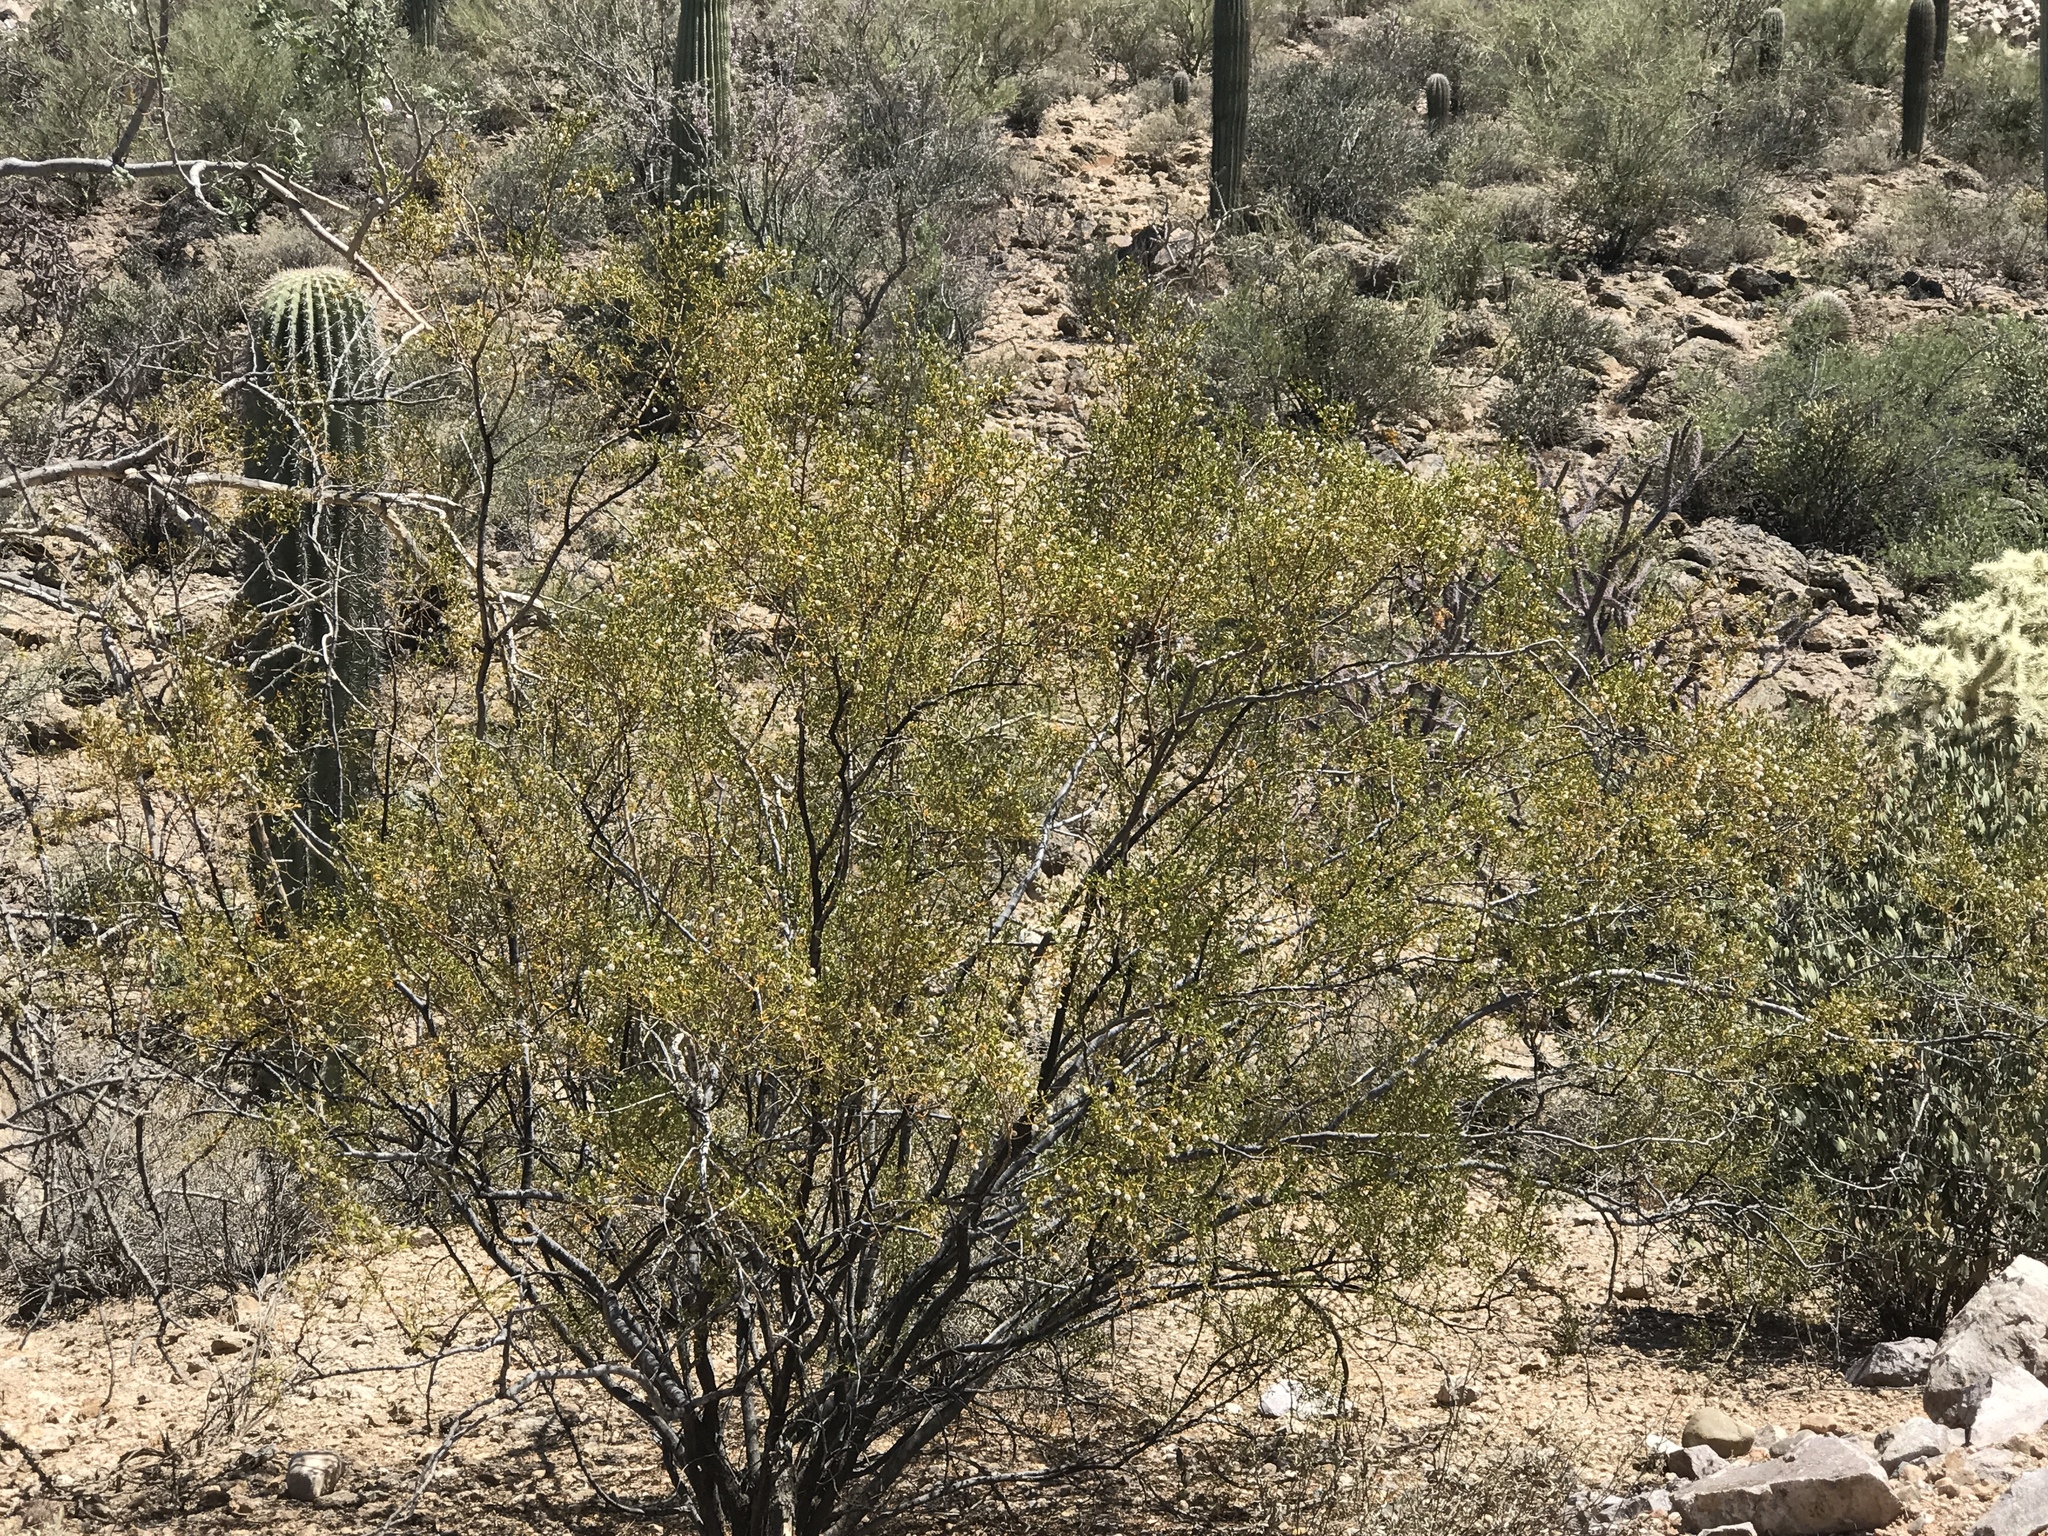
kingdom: Plantae
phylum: Tracheophyta
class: Magnoliopsida
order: Zygophyllales
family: Zygophyllaceae
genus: Larrea
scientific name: Larrea tridentata
